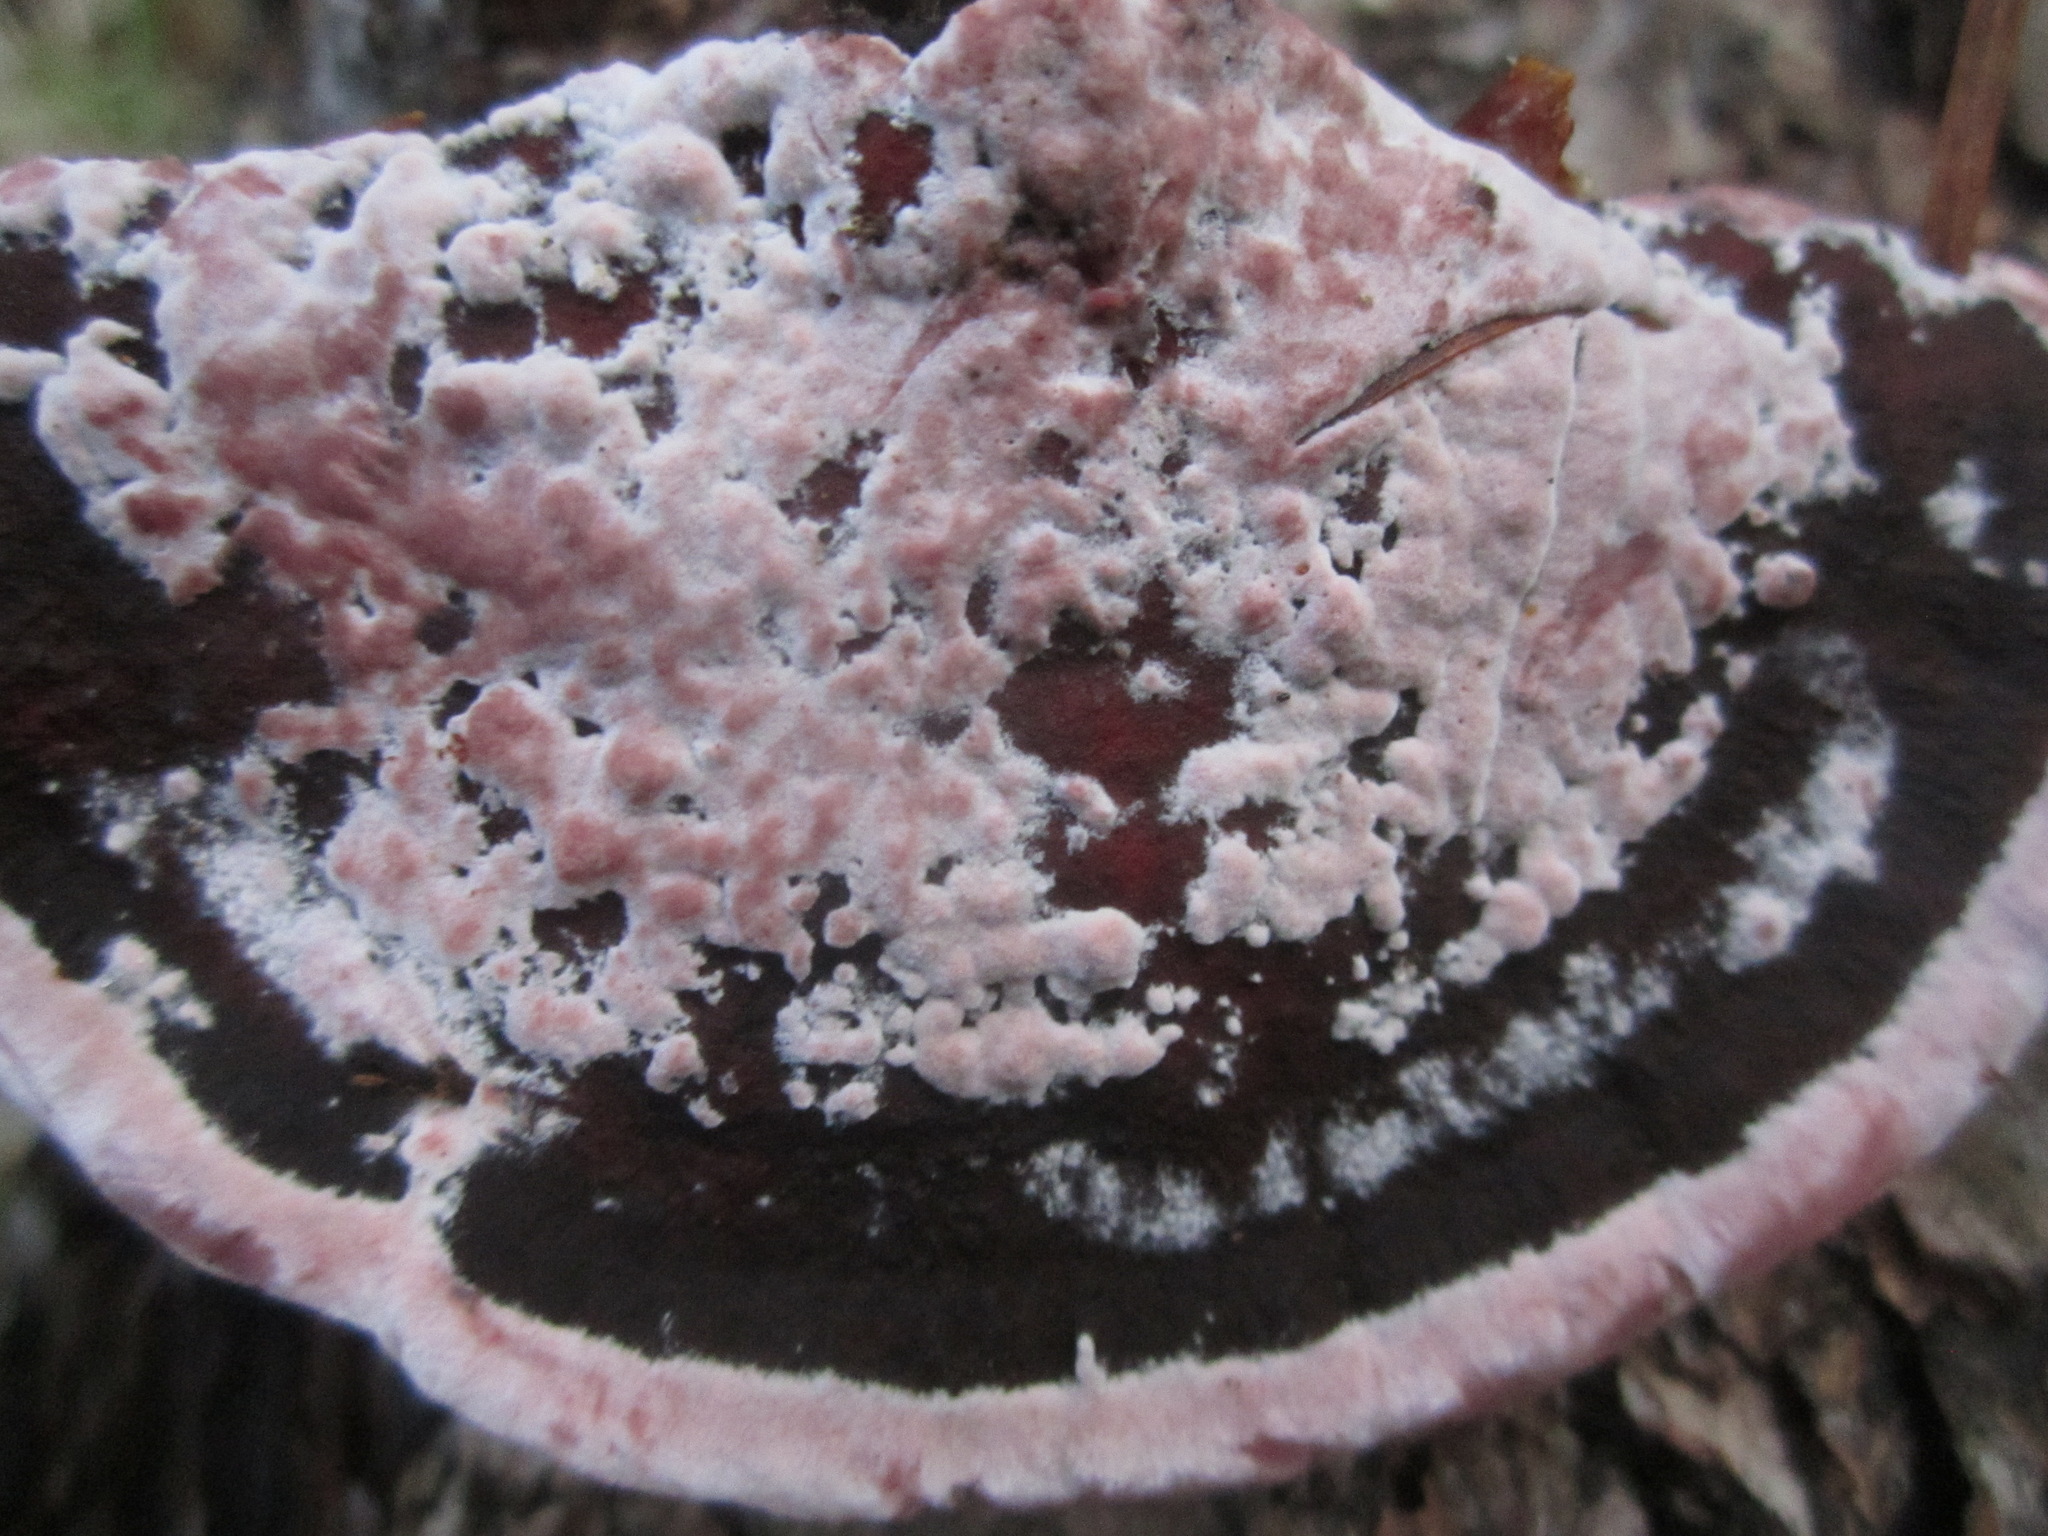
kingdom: Fungi
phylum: Basidiomycota
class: Agaricomycetes
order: Polyporales
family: Fomitopsidaceae
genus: Rhodofomes
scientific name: Rhodofomes cajanderi
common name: Rosy conk
